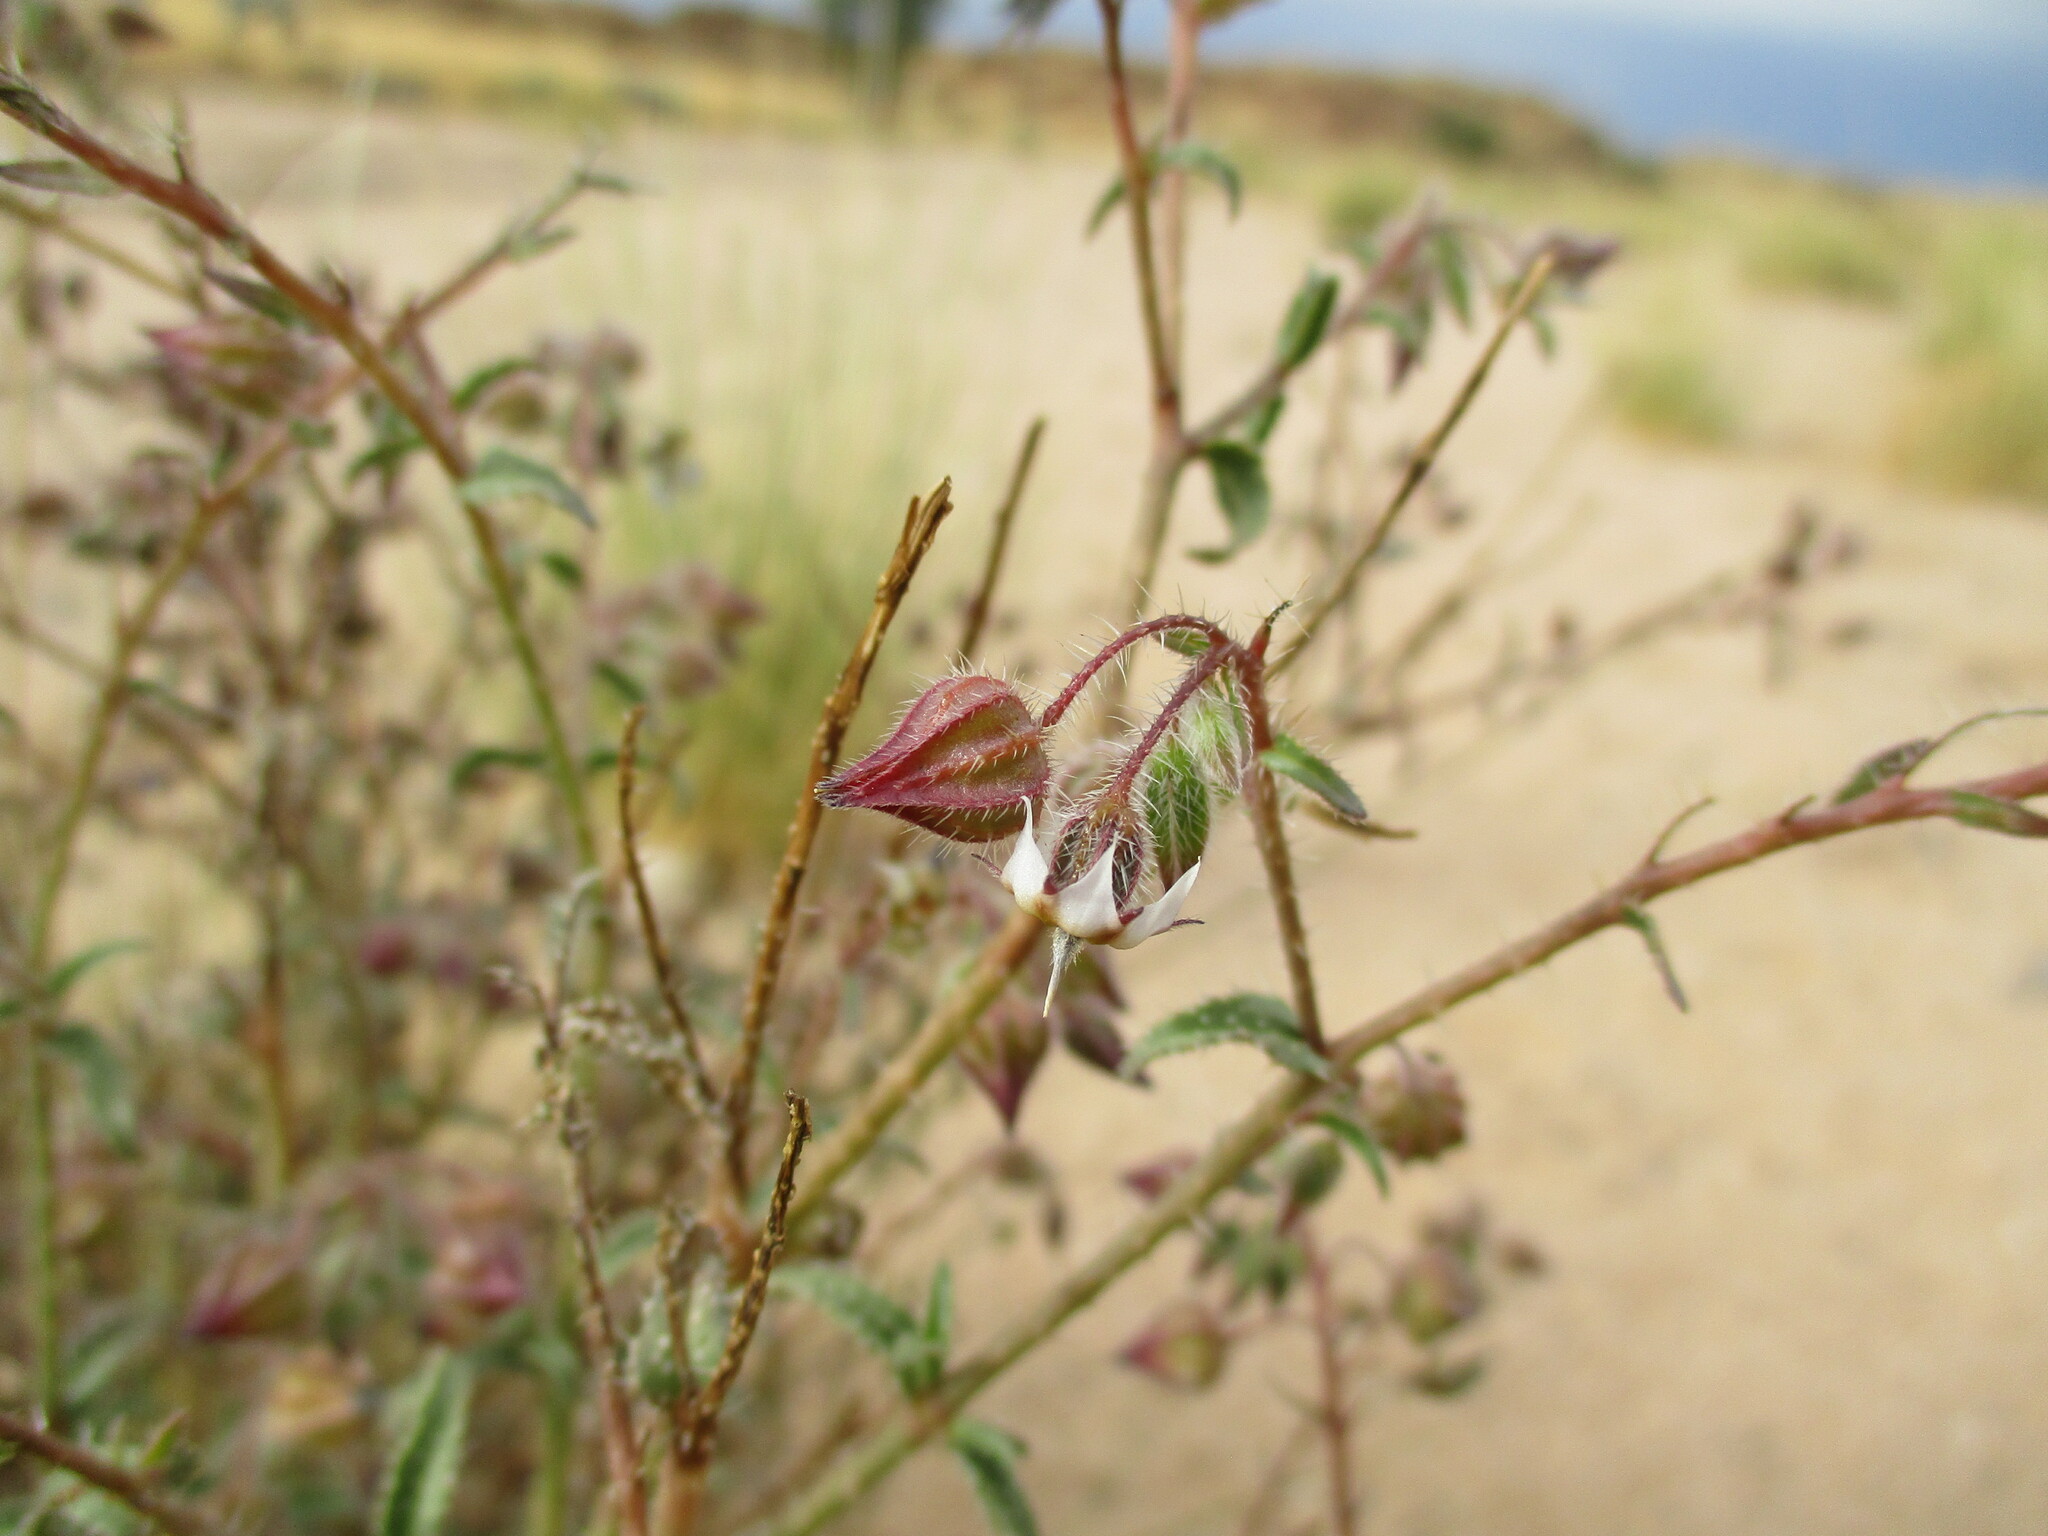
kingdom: Plantae
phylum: Tracheophyta
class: Magnoliopsida
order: Boraginales
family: Boraginaceae
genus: Trichodesma
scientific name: Trichodesma africanum
